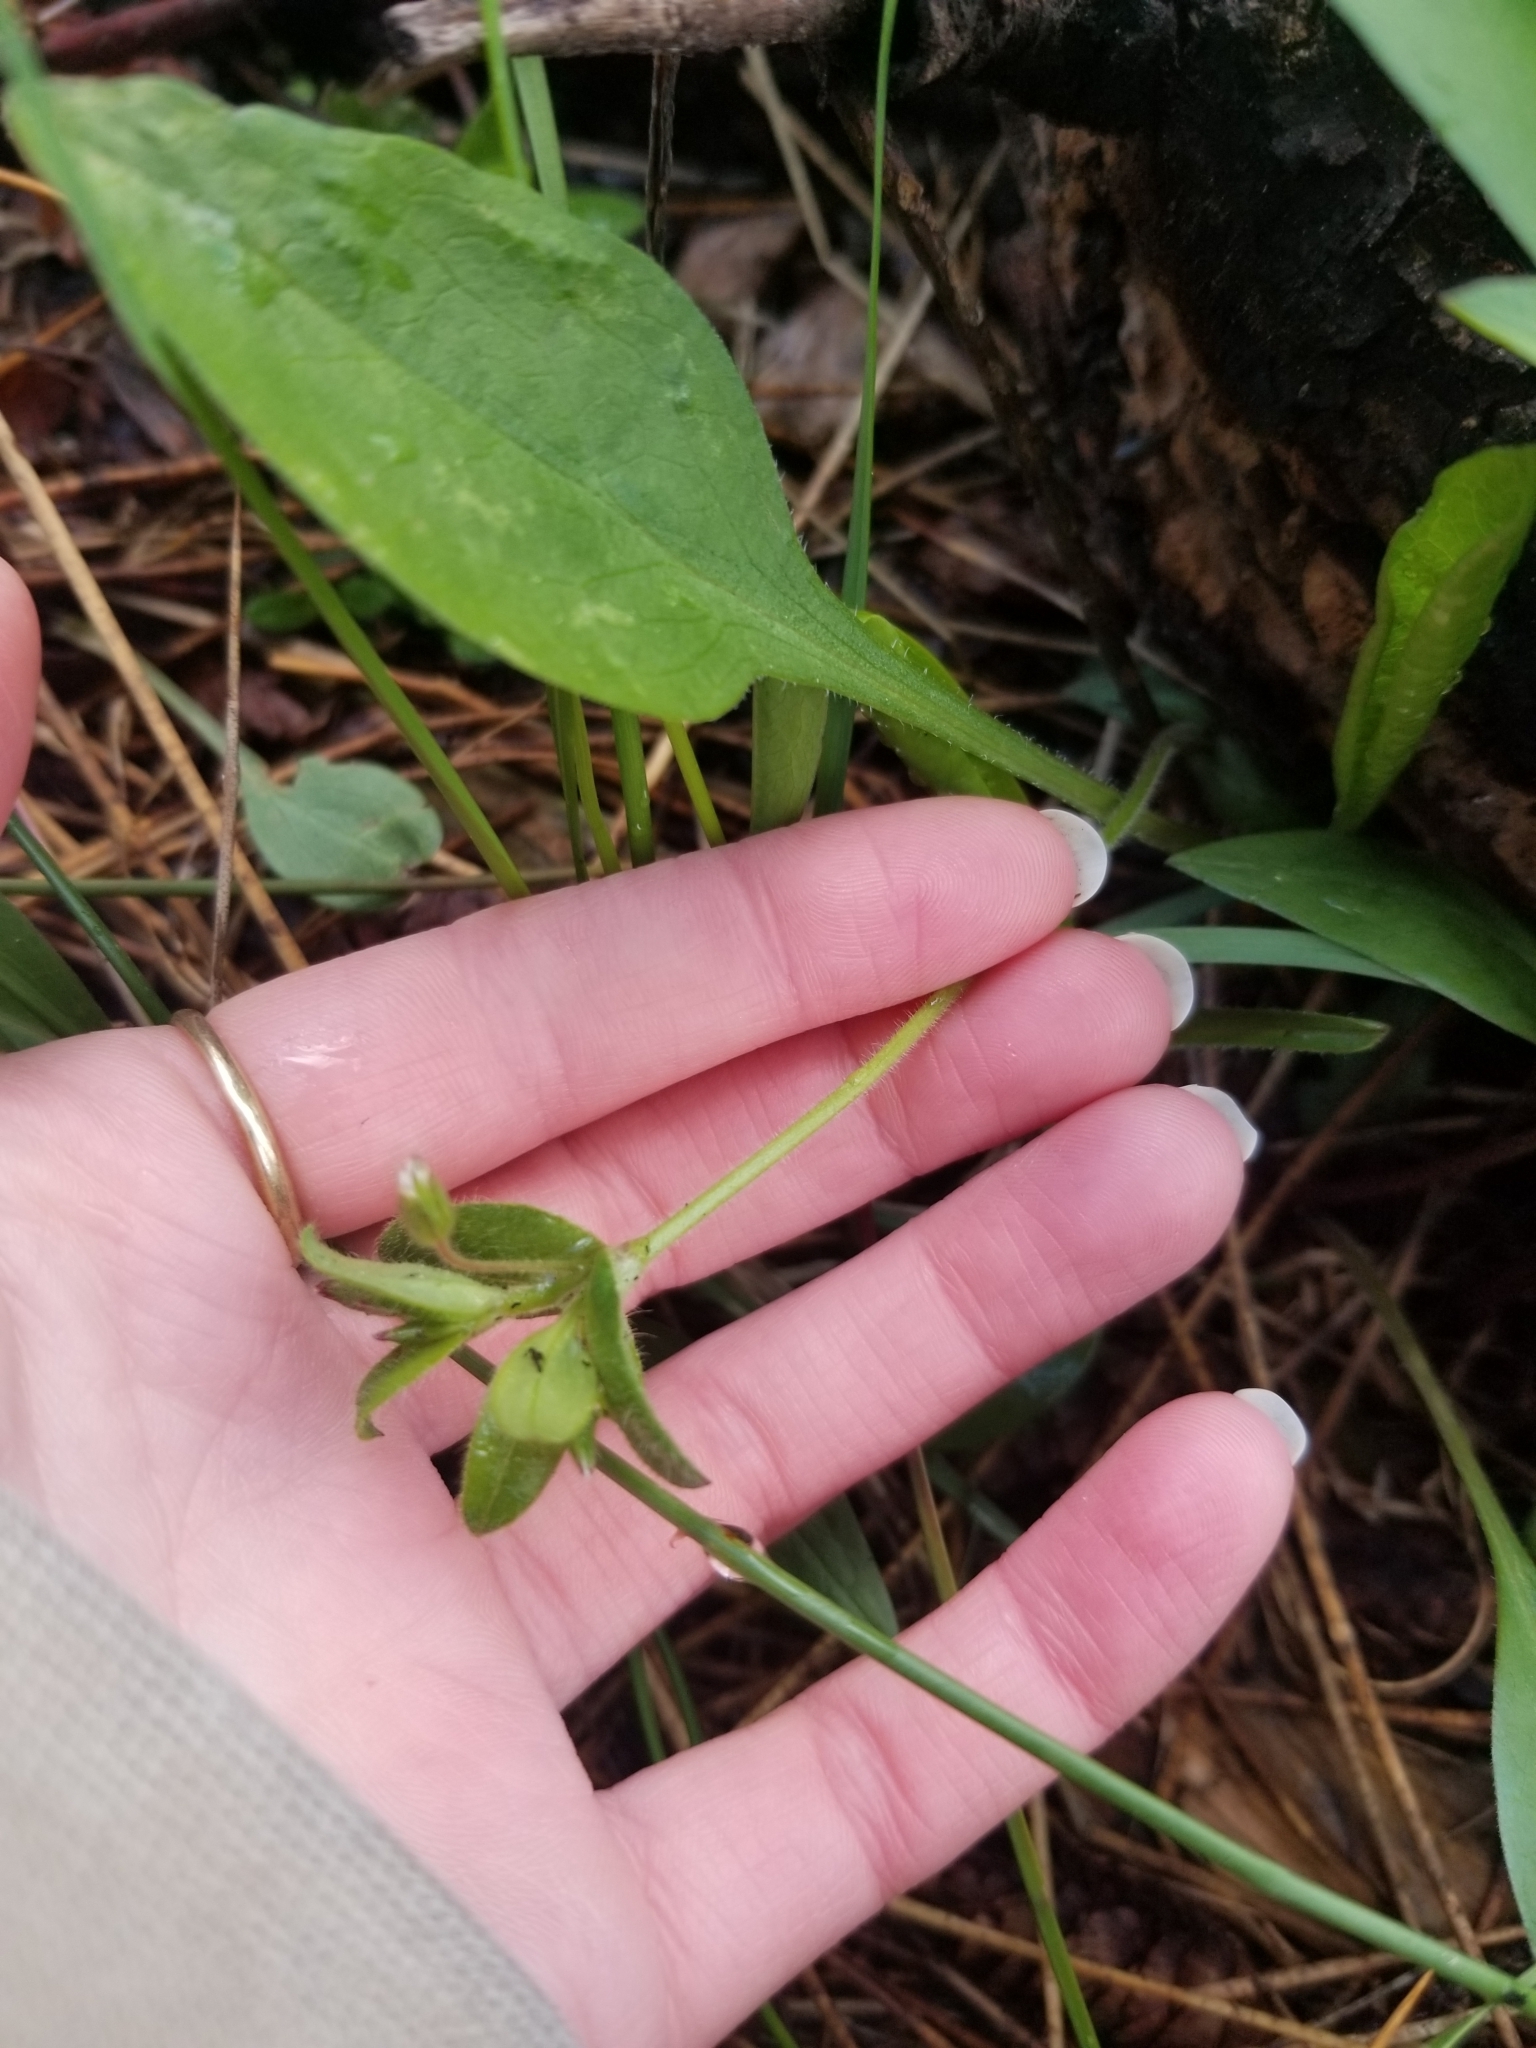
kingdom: Plantae
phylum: Tracheophyta
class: Magnoliopsida
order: Caryophyllales
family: Caryophyllaceae
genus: Cerastium
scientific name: Cerastium fontanum
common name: Common mouse-ear
